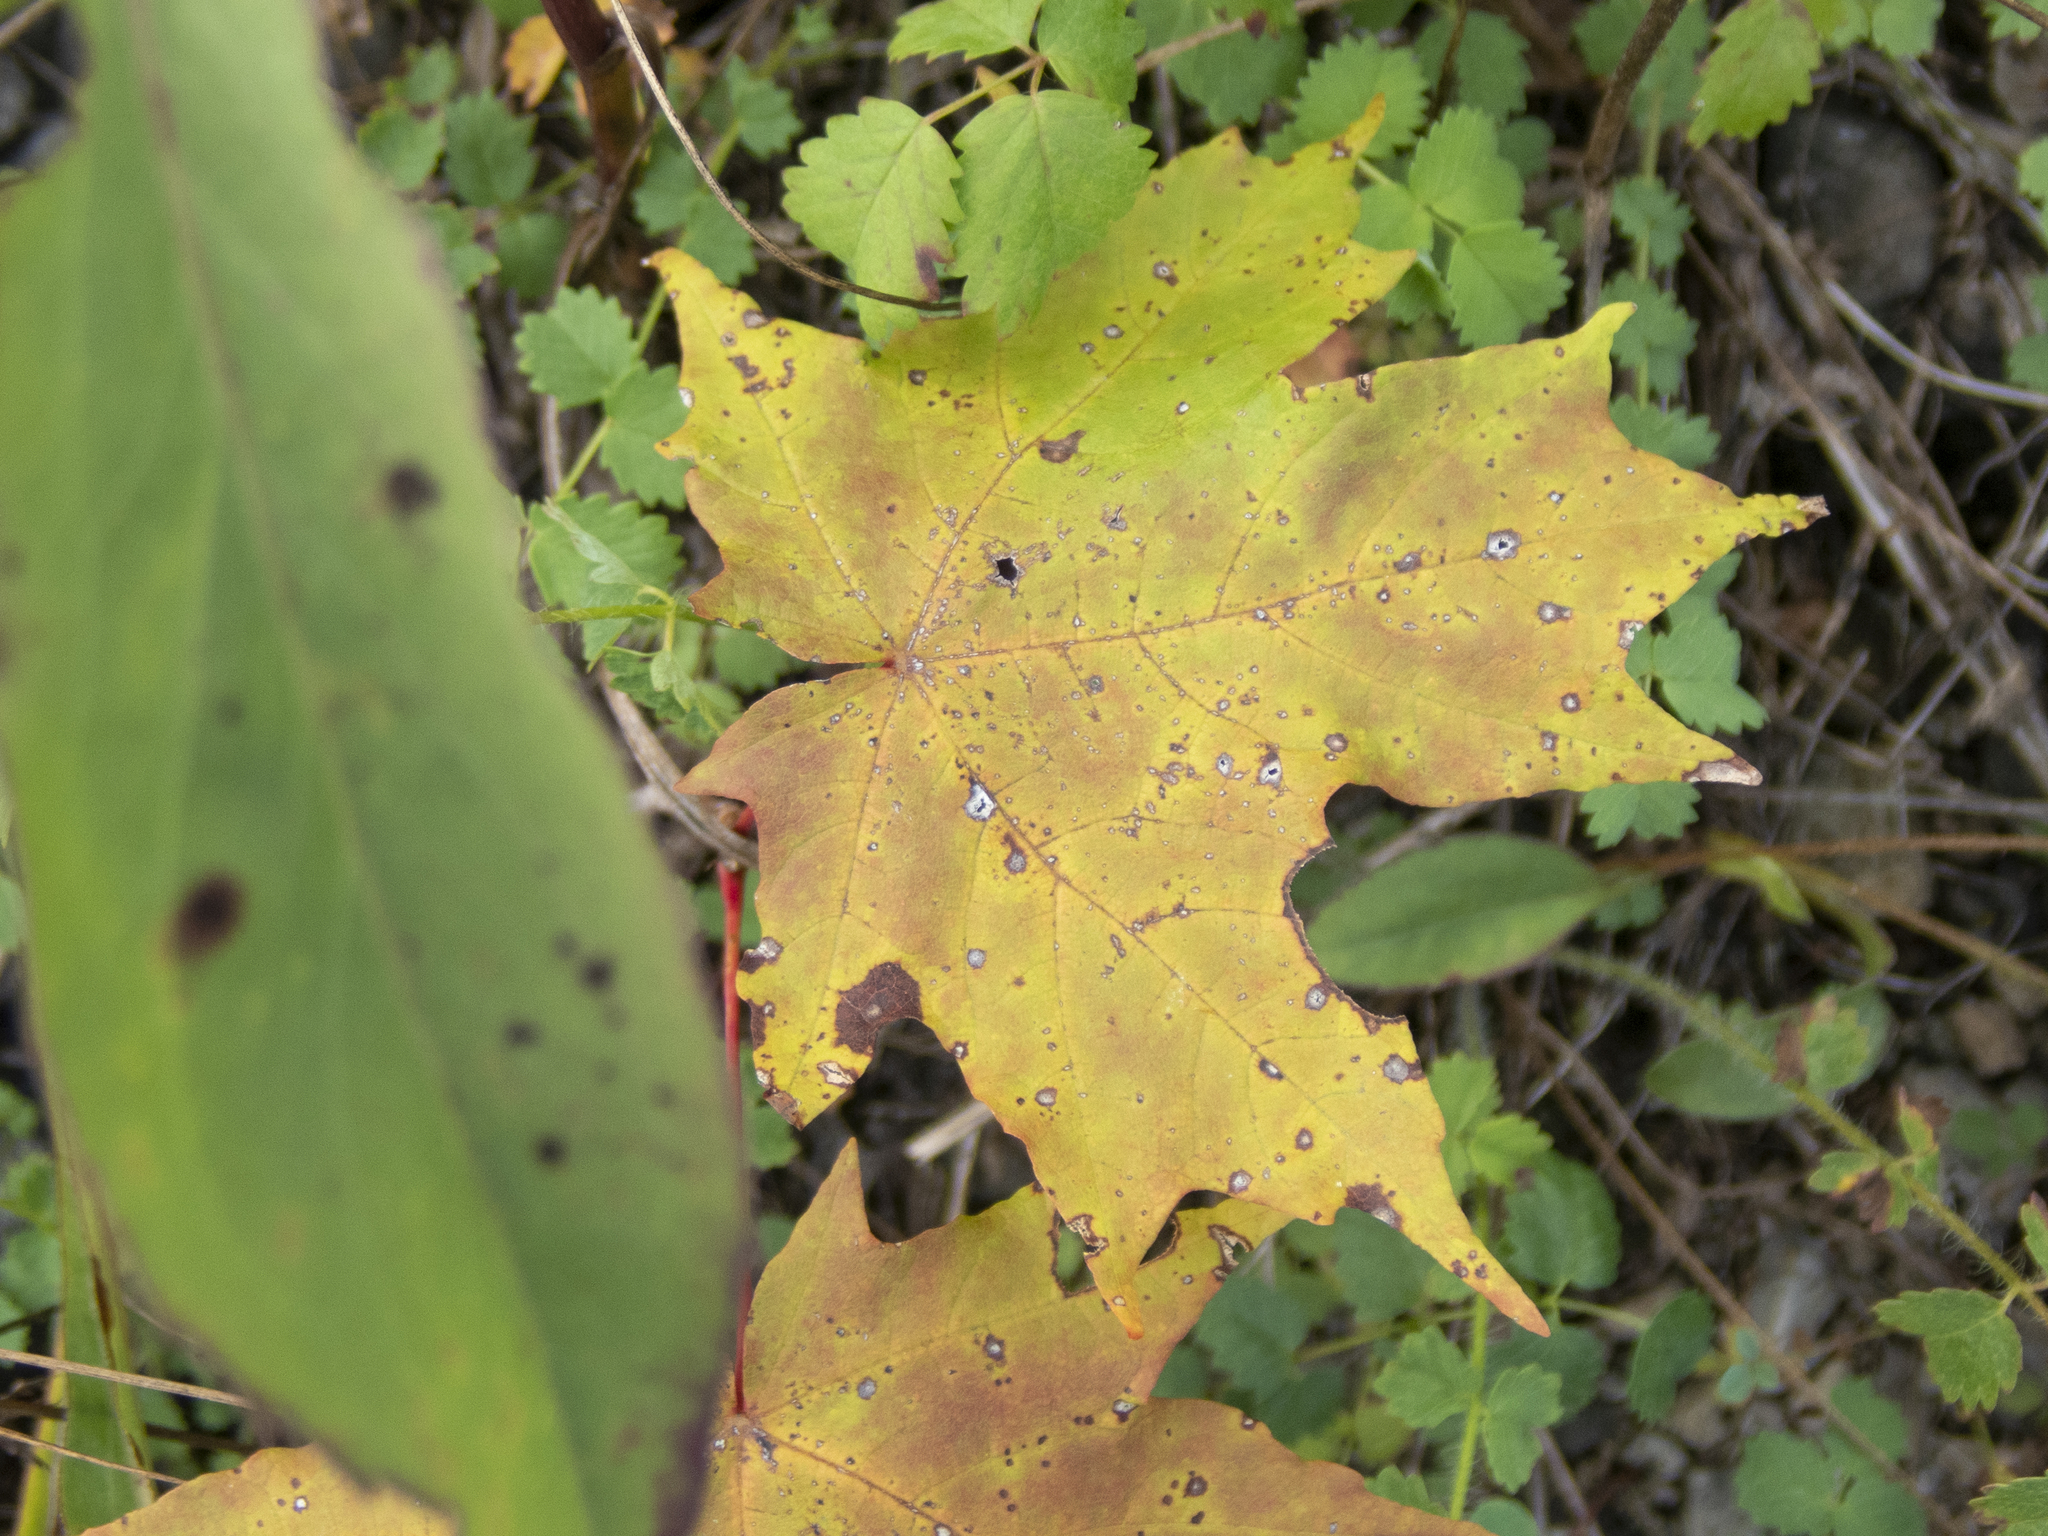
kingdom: Plantae
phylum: Tracheophyta
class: Magnoliopsida
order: Sapindales
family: Sapindaceae
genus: Acer
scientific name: Acer saccharum
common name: Sugar maple
